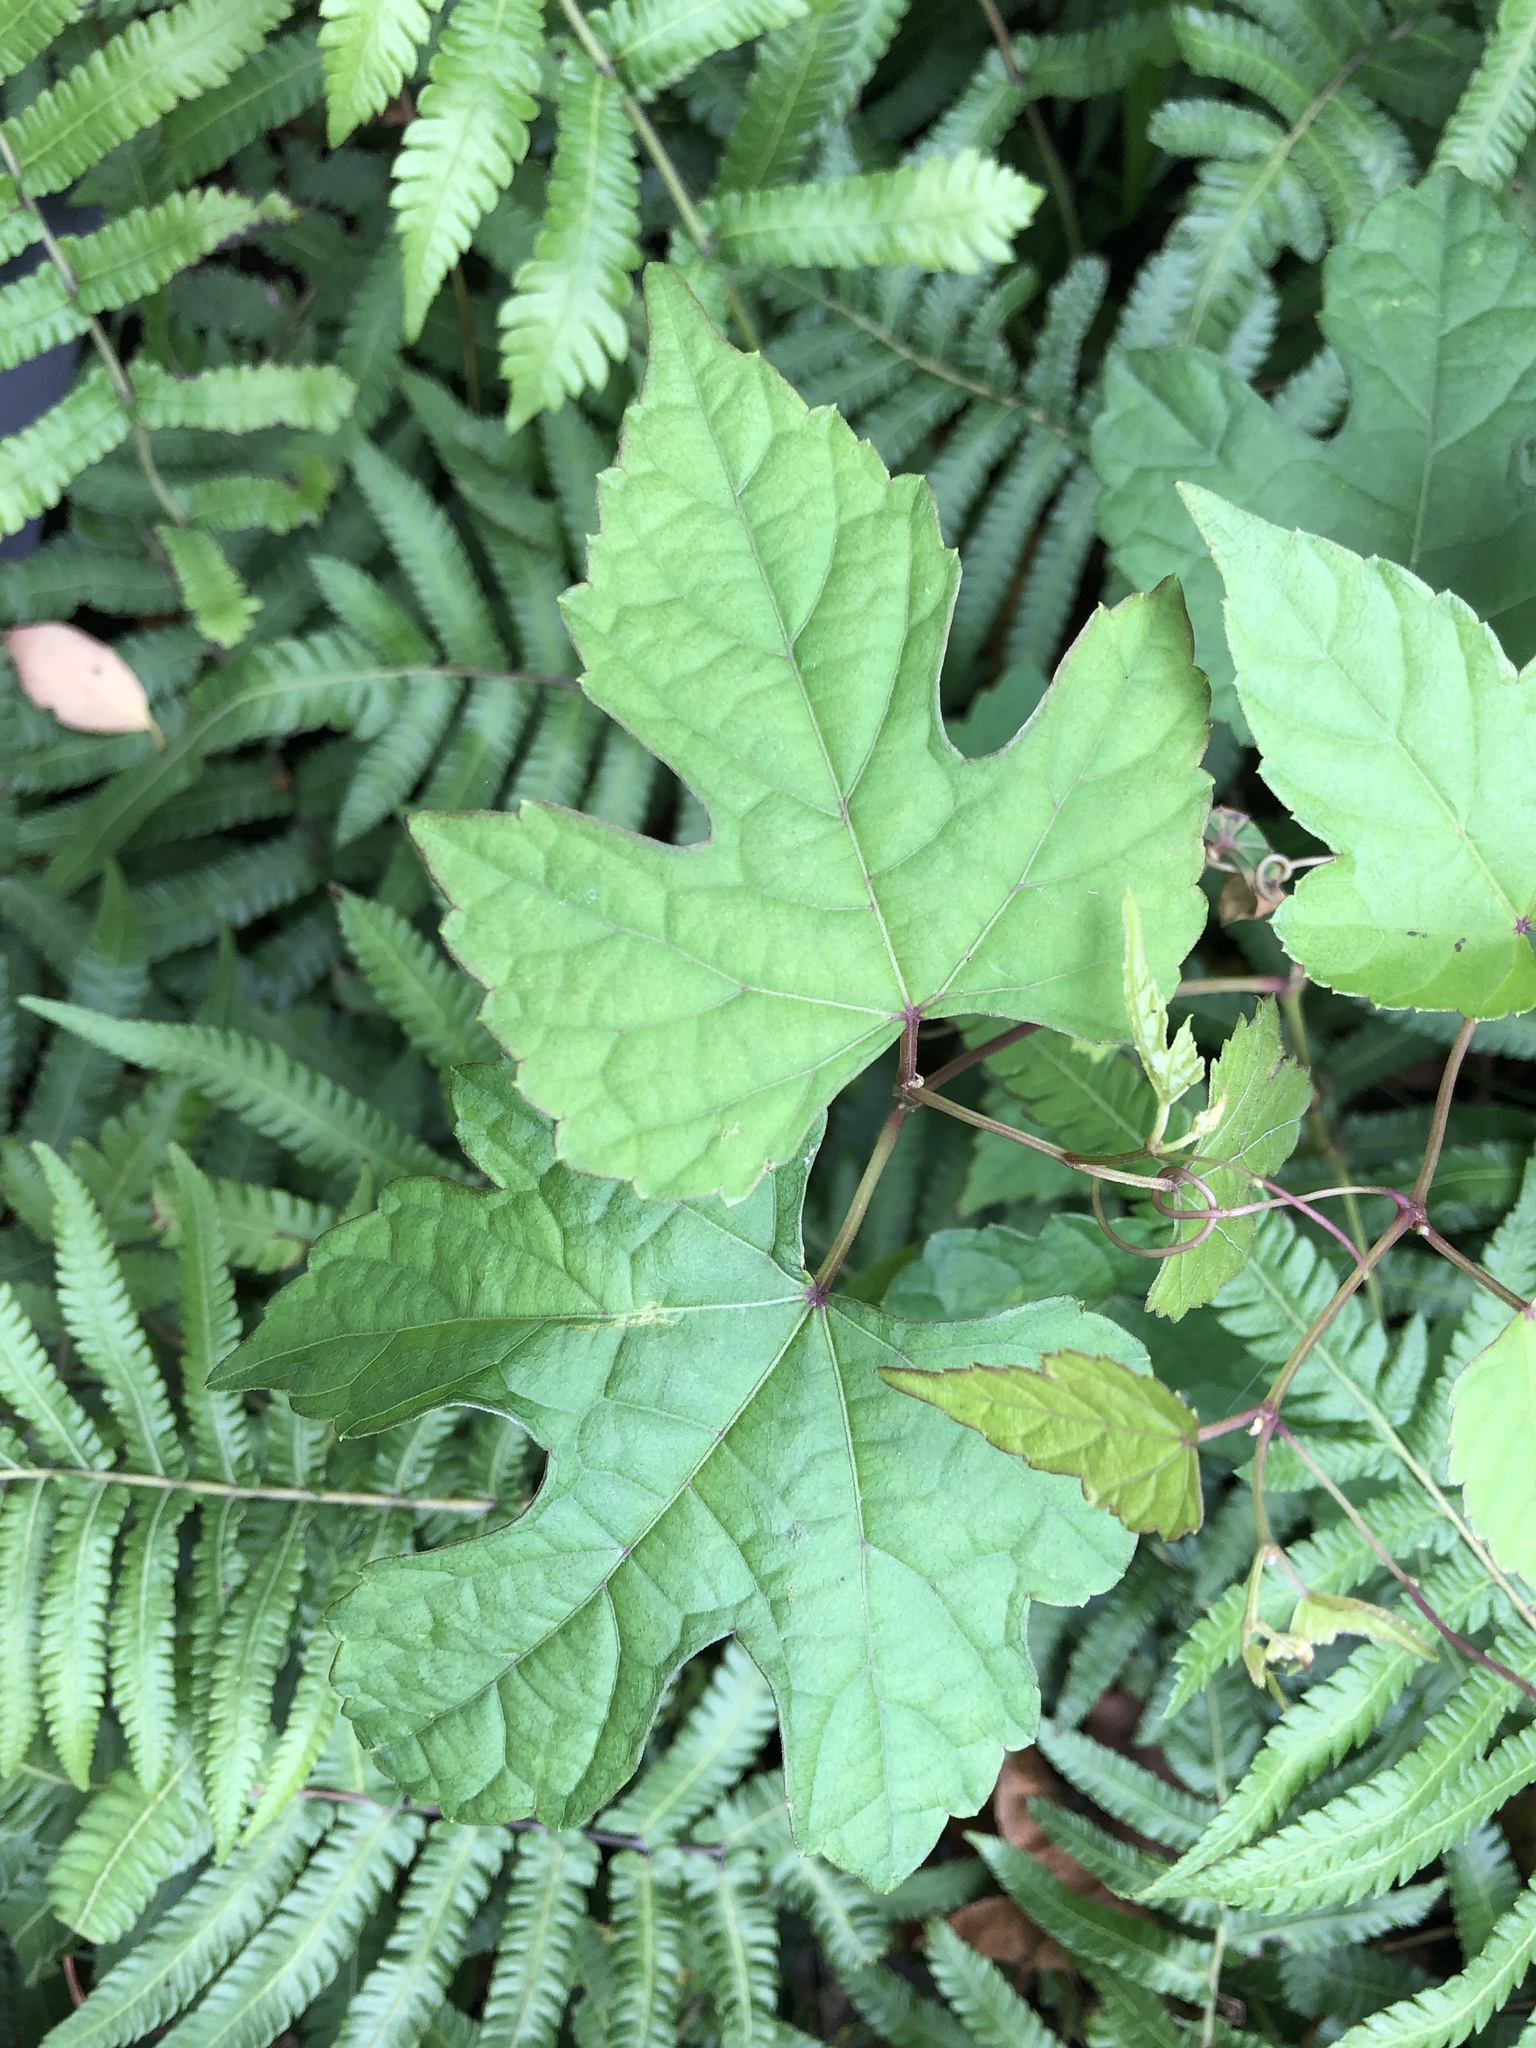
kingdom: Plantae
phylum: Tracheophyta
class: Magnoliopsida
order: Vitales
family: Vitaceae
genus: Ampelopsis
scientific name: Ampelopsis glandulosa
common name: Amur peppervine
